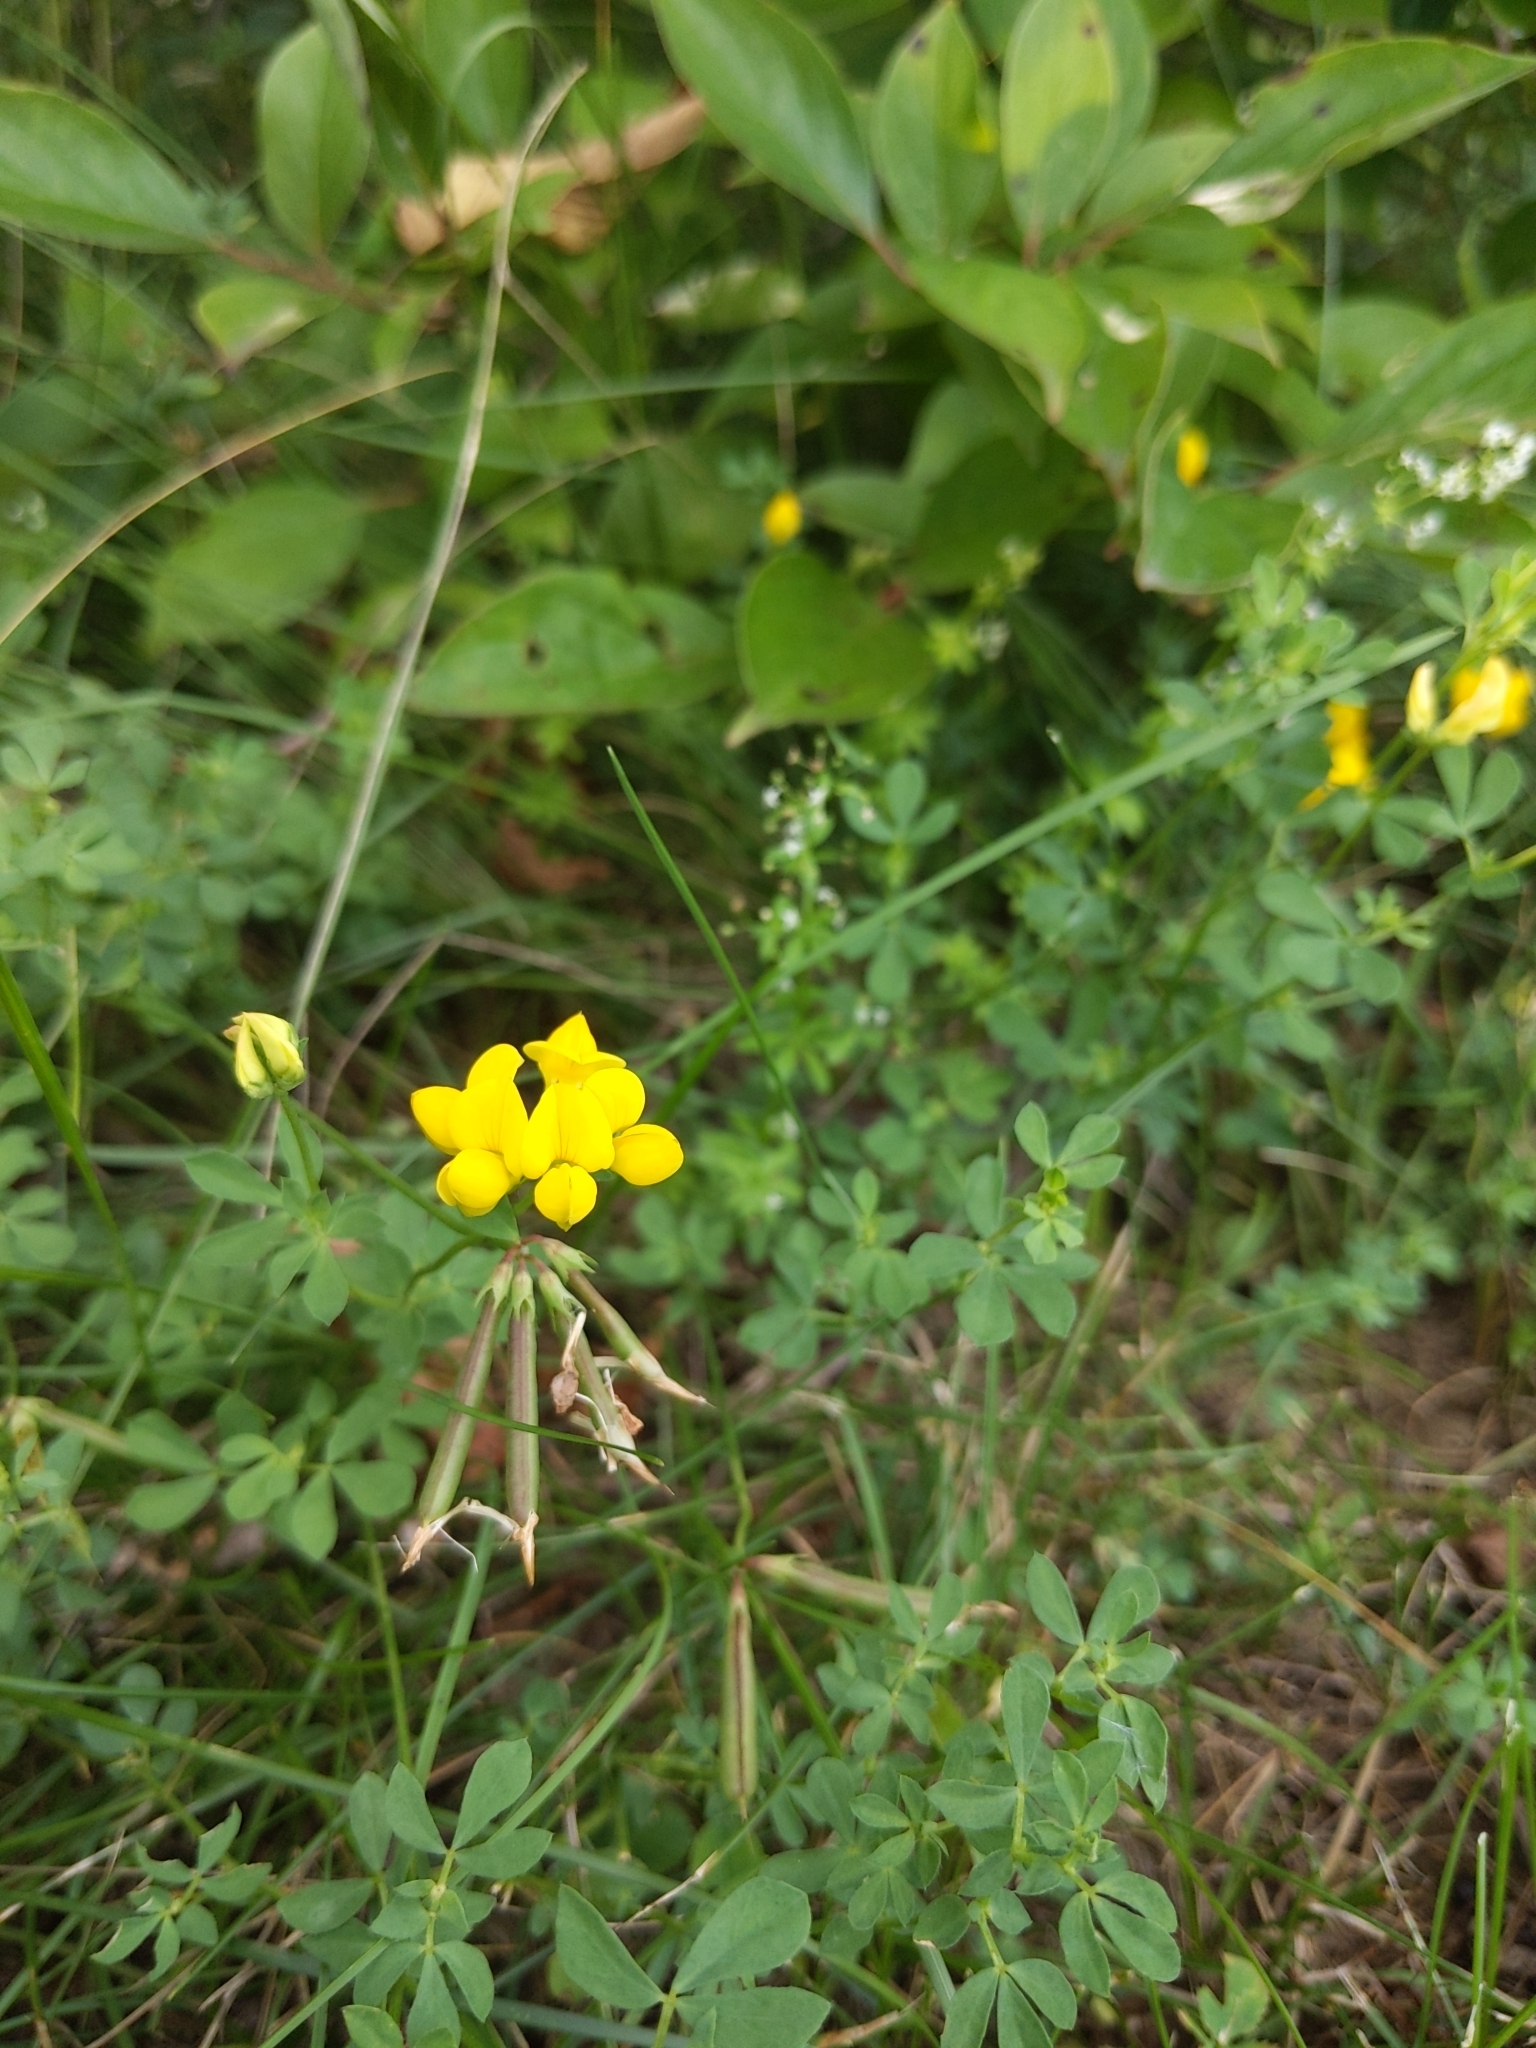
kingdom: Plantae
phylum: Tracheophyta
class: Magnoliopsida
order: Fabales
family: Fabaceae
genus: Lotus
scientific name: Lotus corniculatus
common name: Common bird's-foot-trefoil
